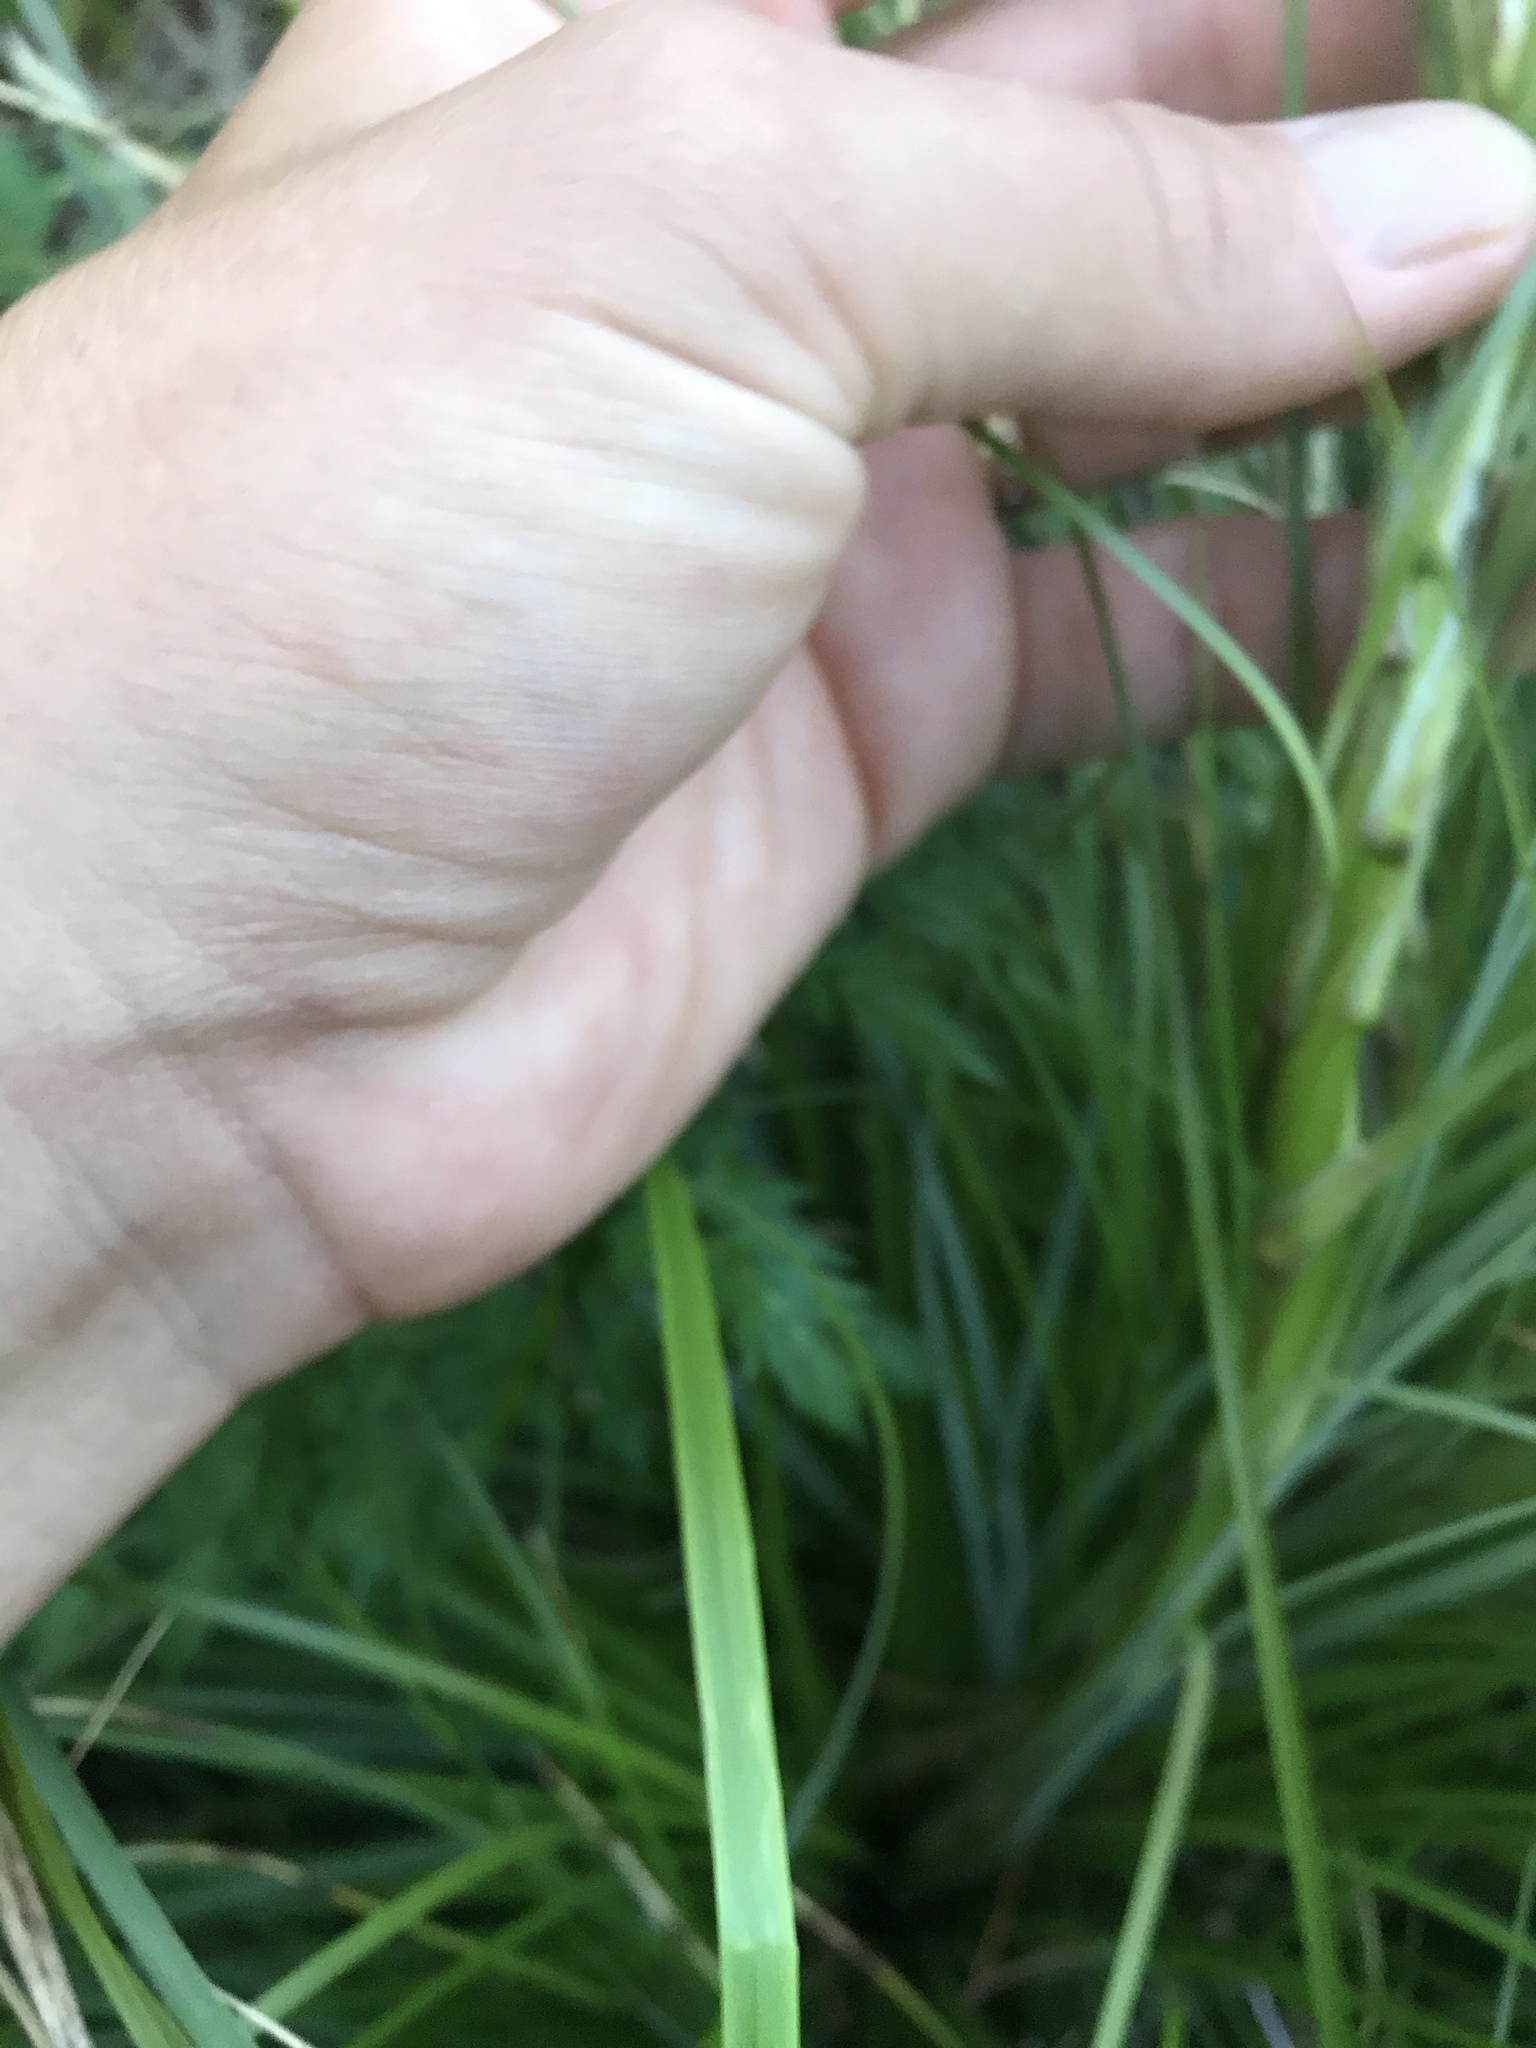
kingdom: Plantae
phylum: Tracheophyta
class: Liliopsida
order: Liliales
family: Melanthiaceae
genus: Xerophyllum
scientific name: Xerophyllum tenax
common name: Bear-grass
